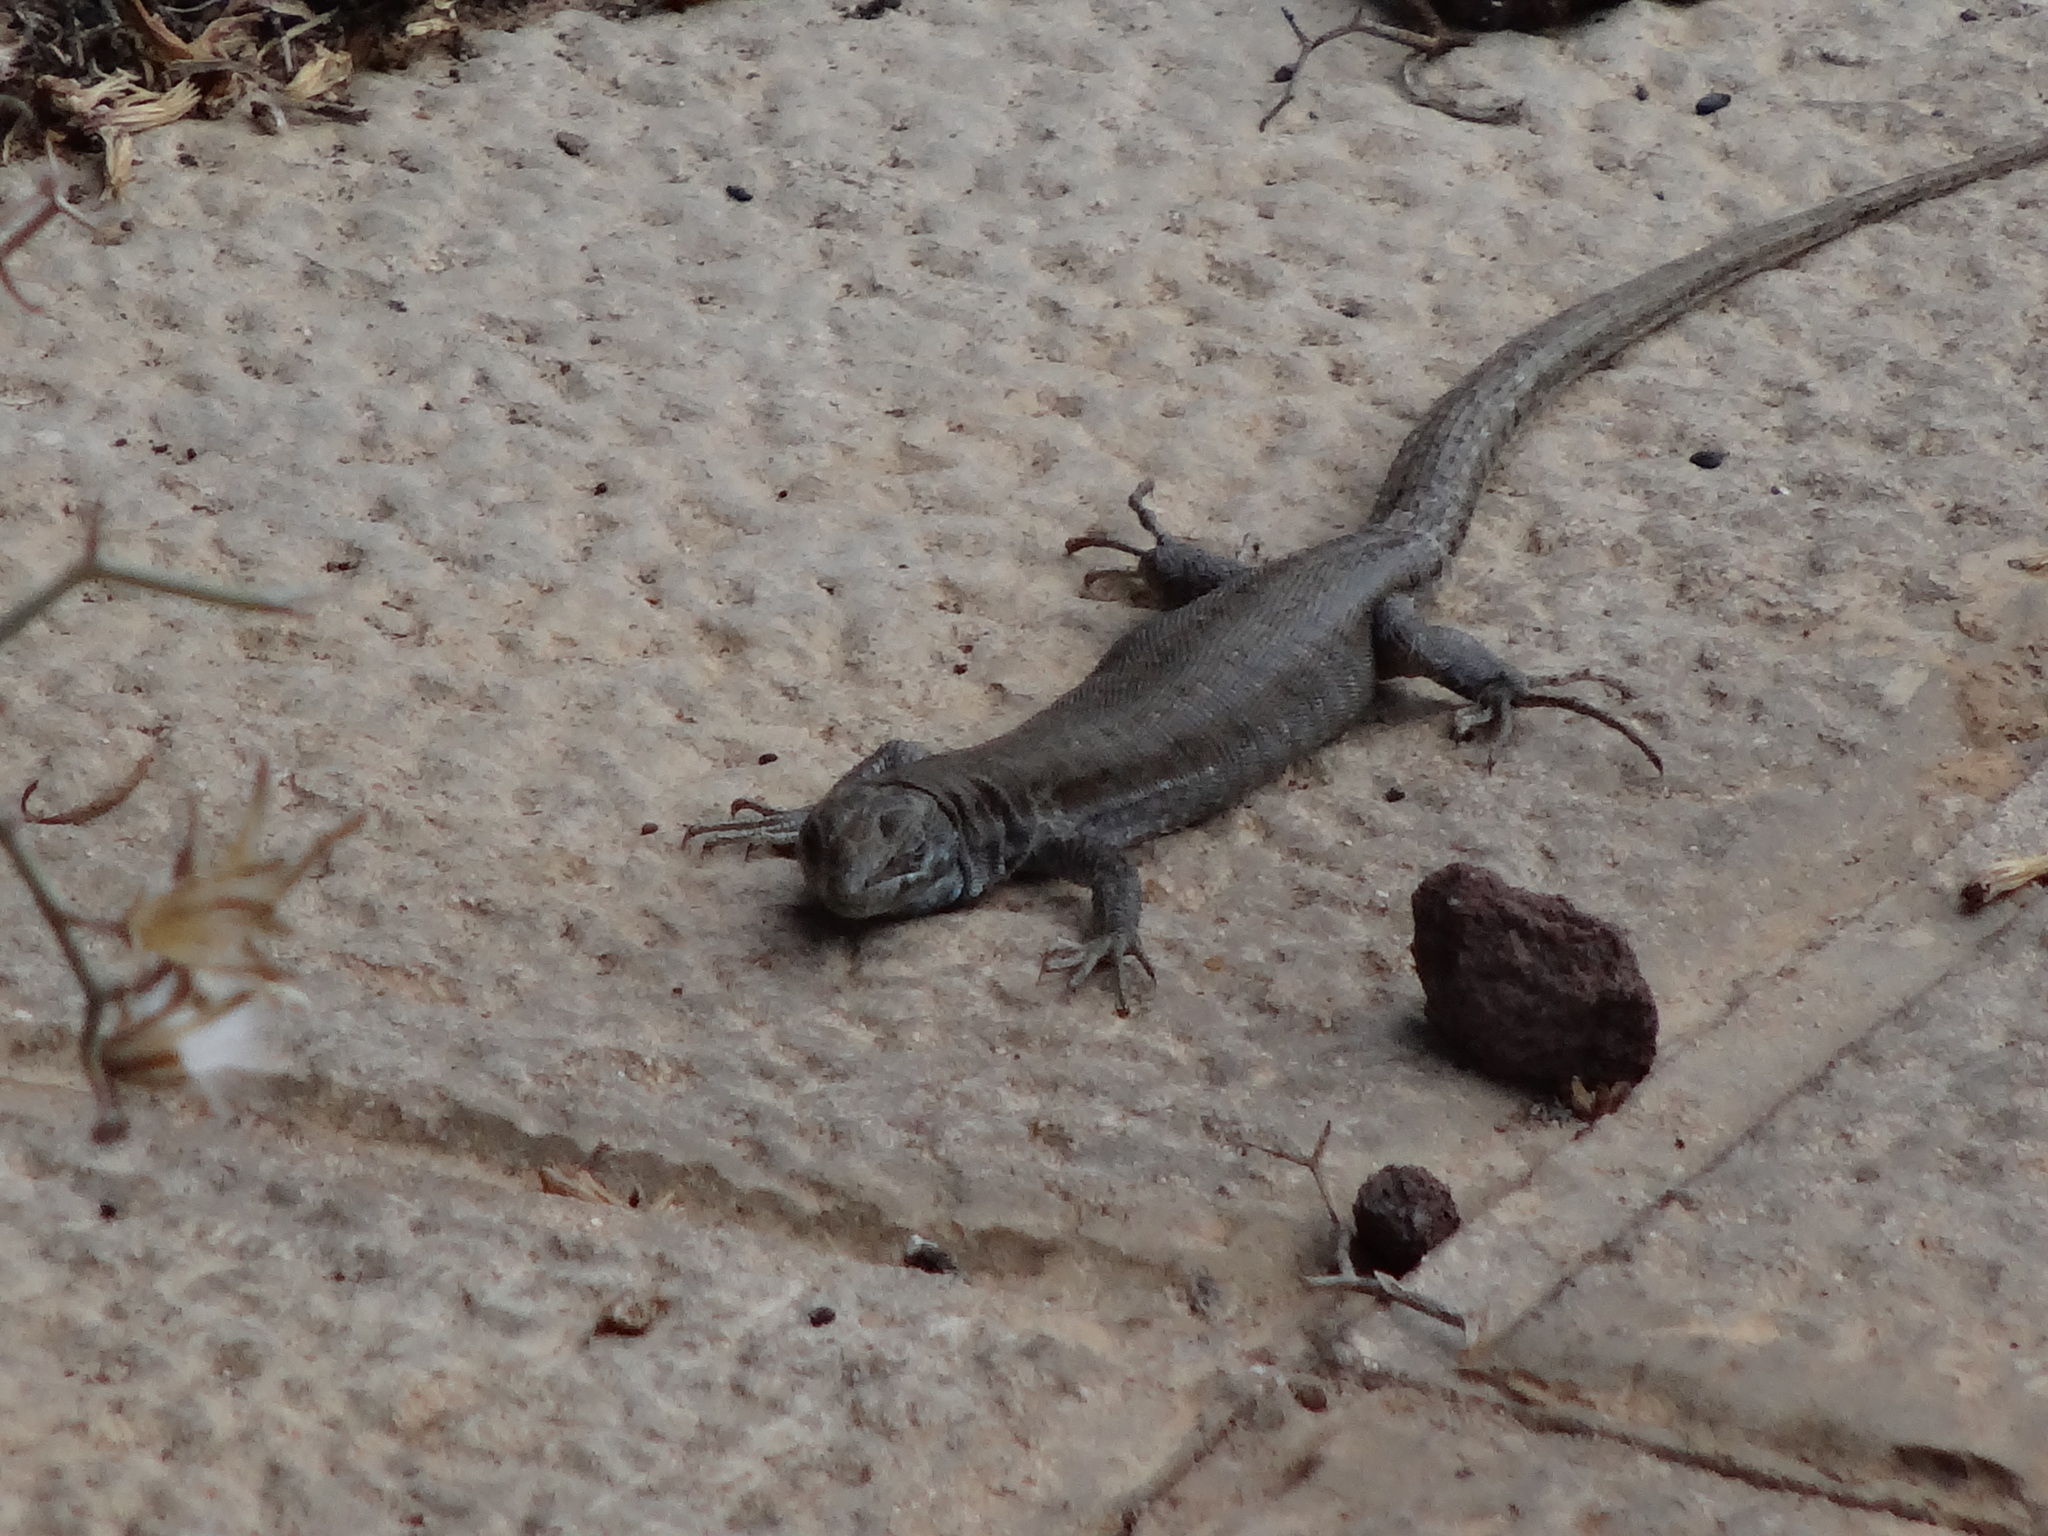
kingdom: Animalia
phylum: Chordata
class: Squamata
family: Lacertidae
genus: Gallotia
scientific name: Gallotia atlantica
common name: Atlantic lizard
